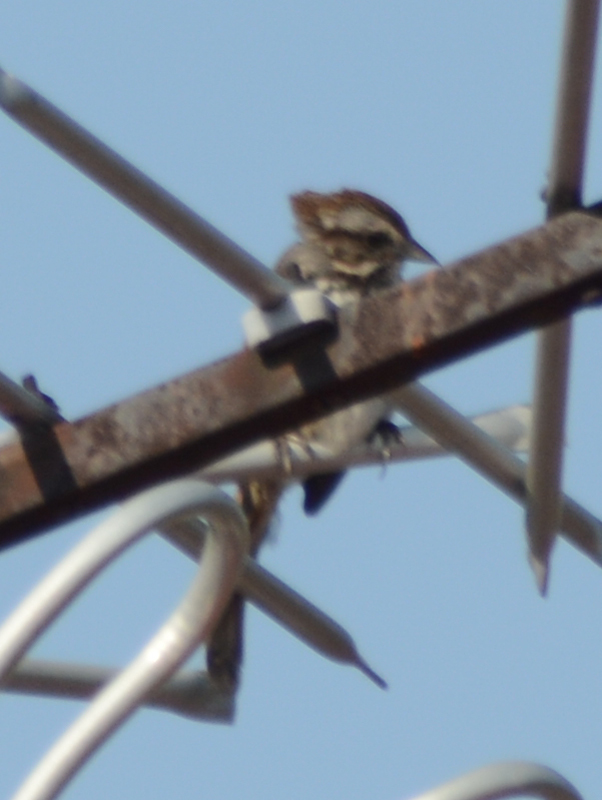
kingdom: Animalia
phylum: Chordata
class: Aves
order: Passeriformes
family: Passerellidae
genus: Melospiza
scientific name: Melospiza melodia
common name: Song sparrow
